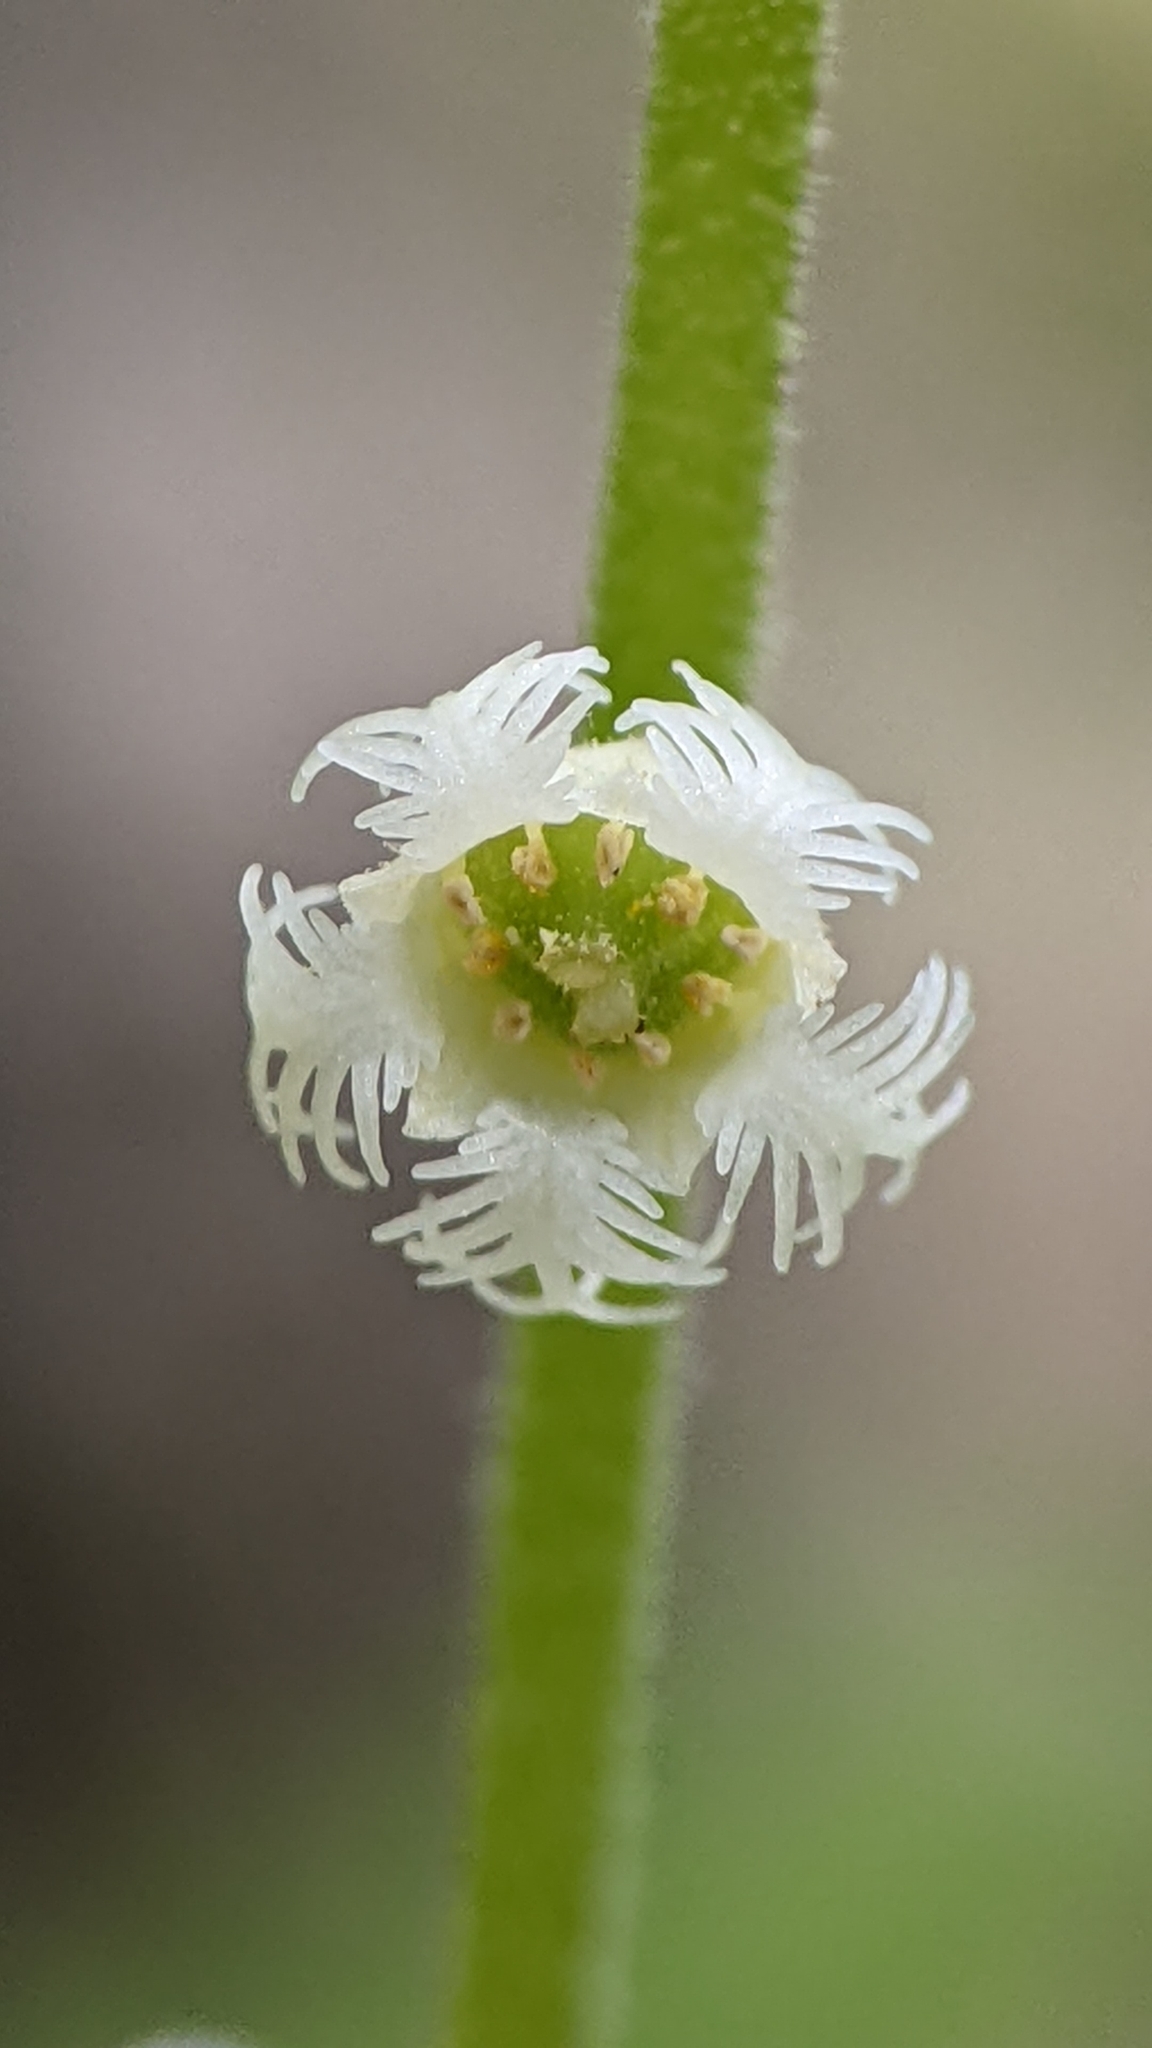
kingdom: Plantae
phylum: Tracheophyta
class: Magnoliopsida
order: Saxifragales
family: Saxifragaceae
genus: Mitella
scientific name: Mitella diphylla
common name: Coolwort
